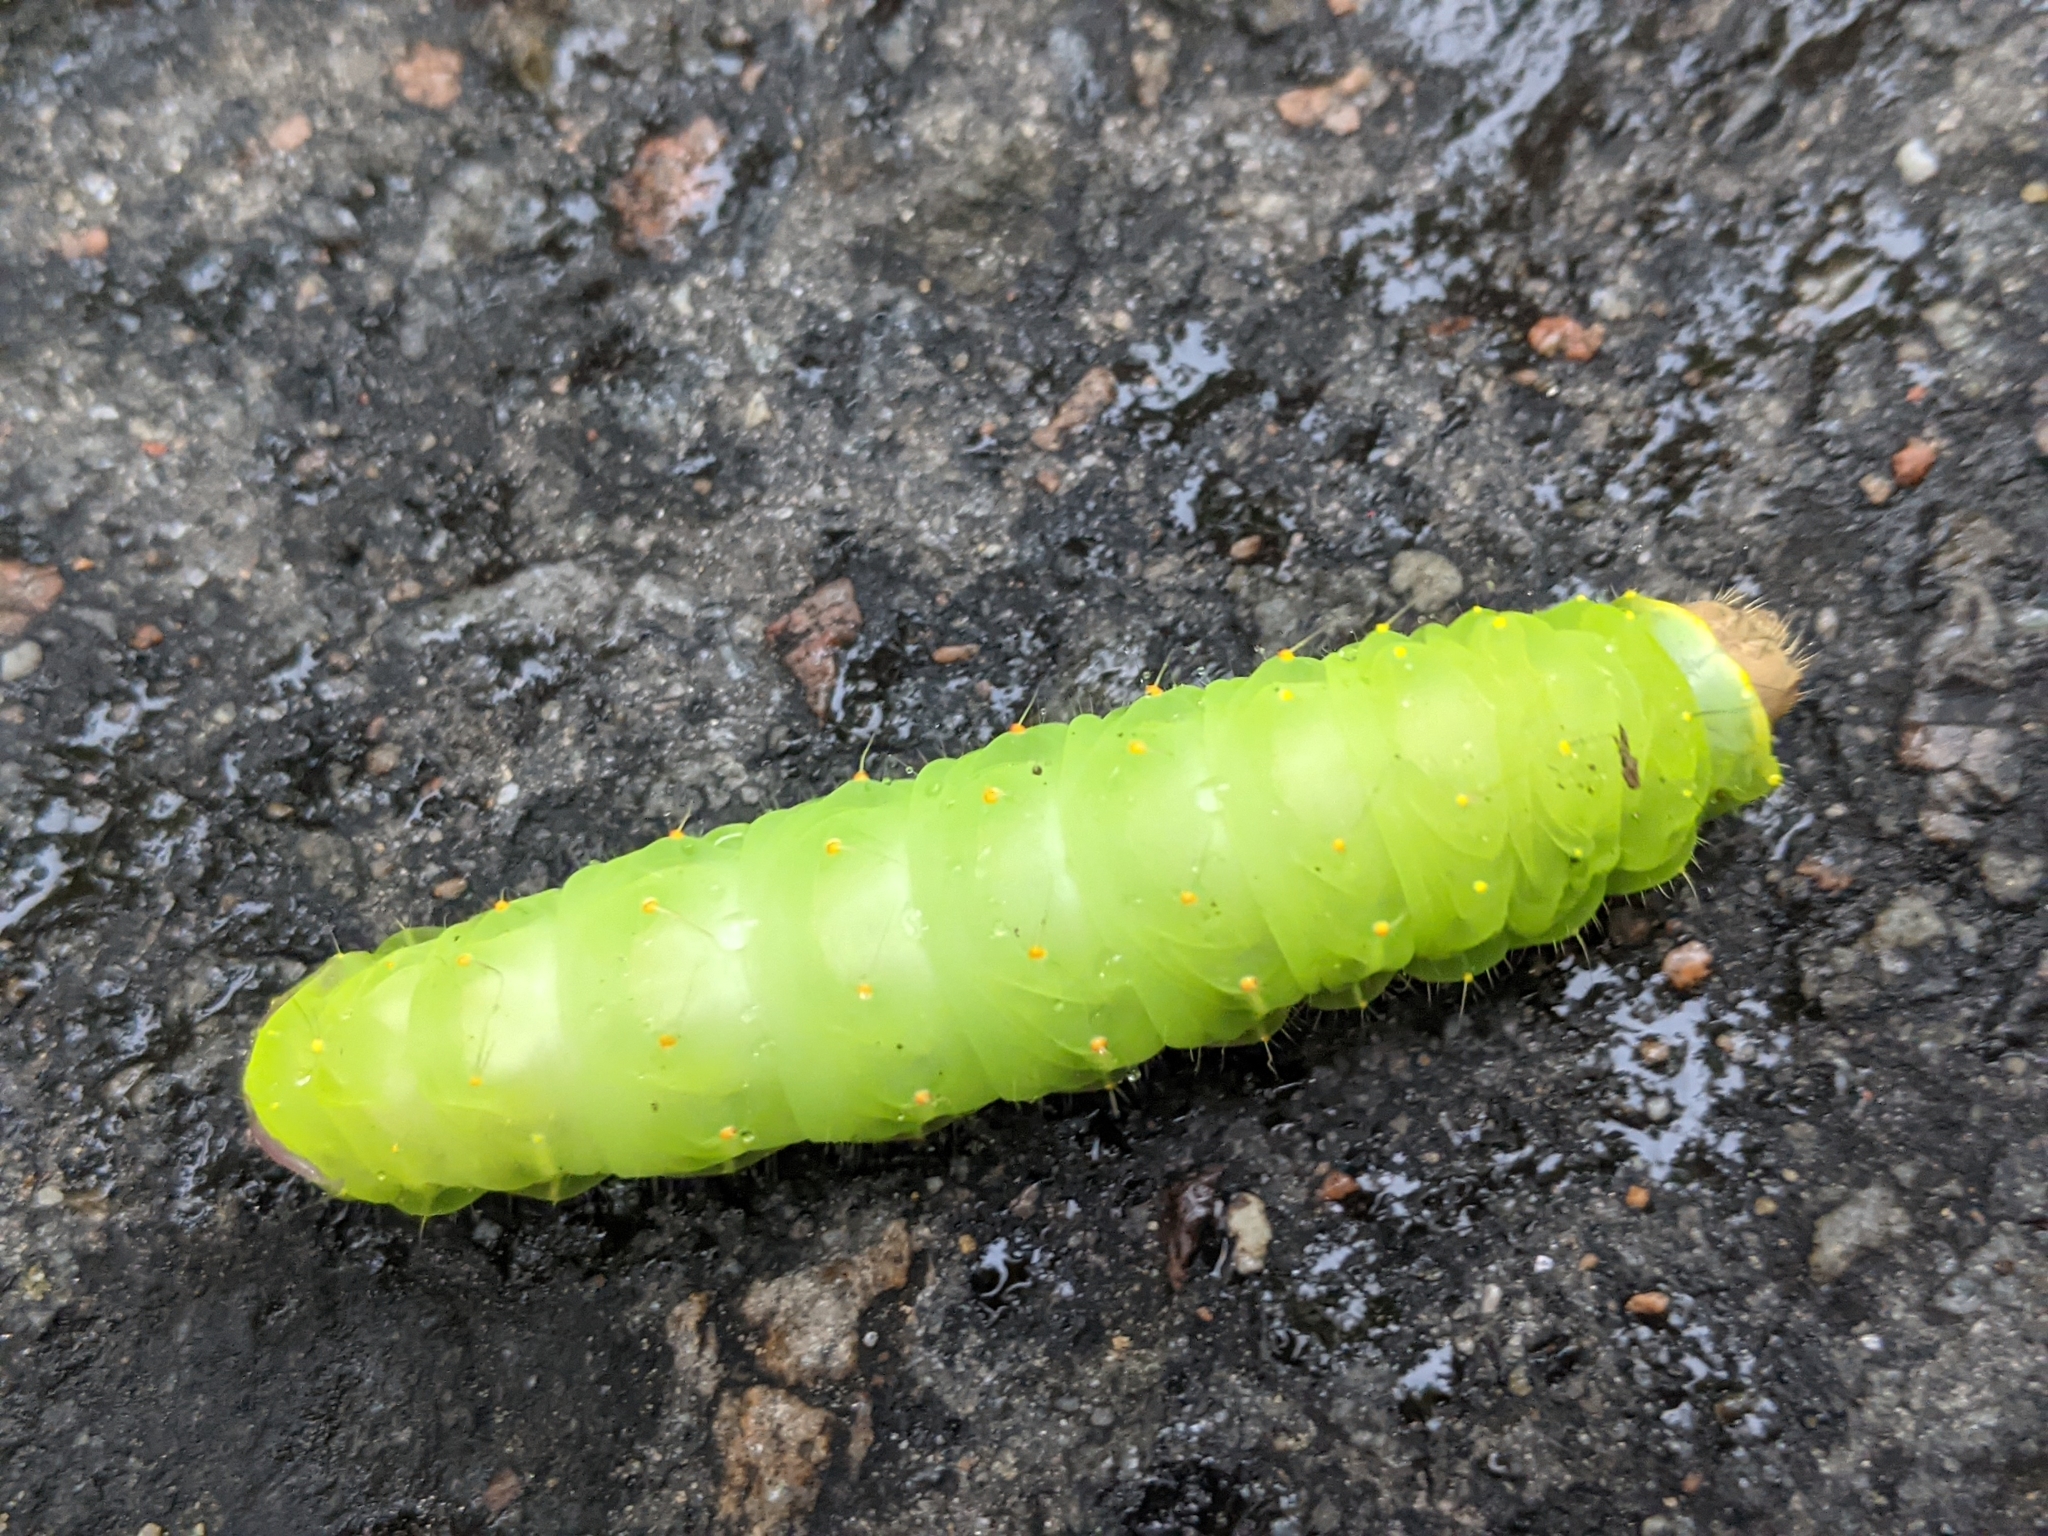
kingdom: Animalia
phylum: Arthropoda
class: Insecta
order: Lepidoptera
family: Saturniidae
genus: Antheraea
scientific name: Antheraea polyphemus
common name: Polyphemus moth
